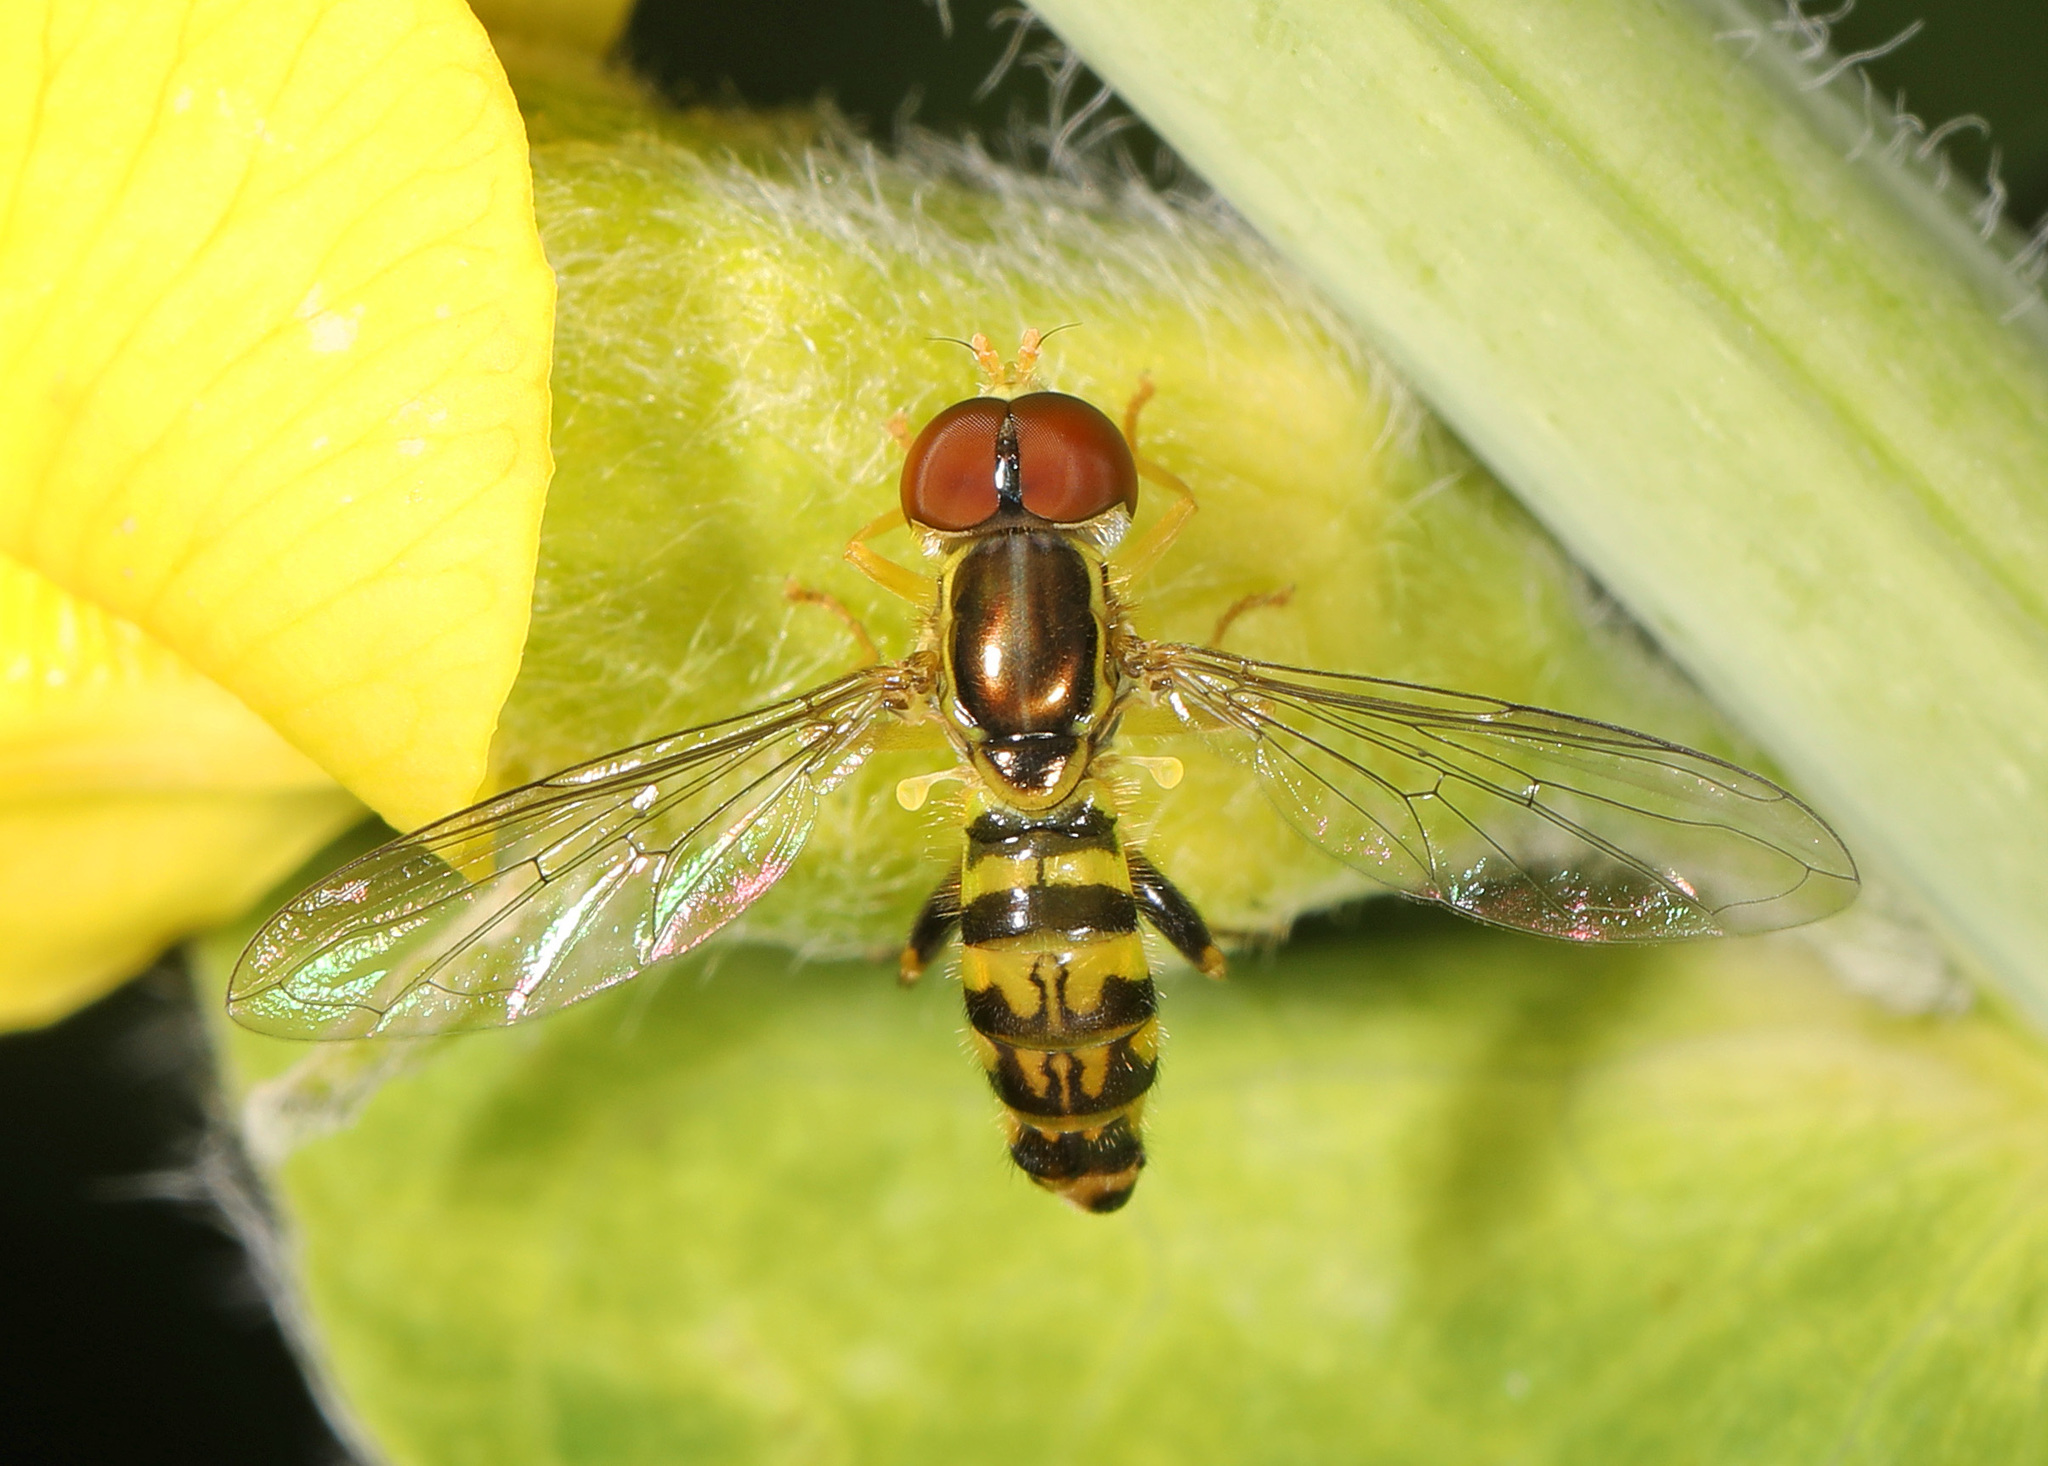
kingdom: Animalia
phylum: Arthropoda
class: Insecta
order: Diptera
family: Syrphidae
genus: Toxomerus
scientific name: Toxomerus geminatus
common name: Eastern calligrapher
